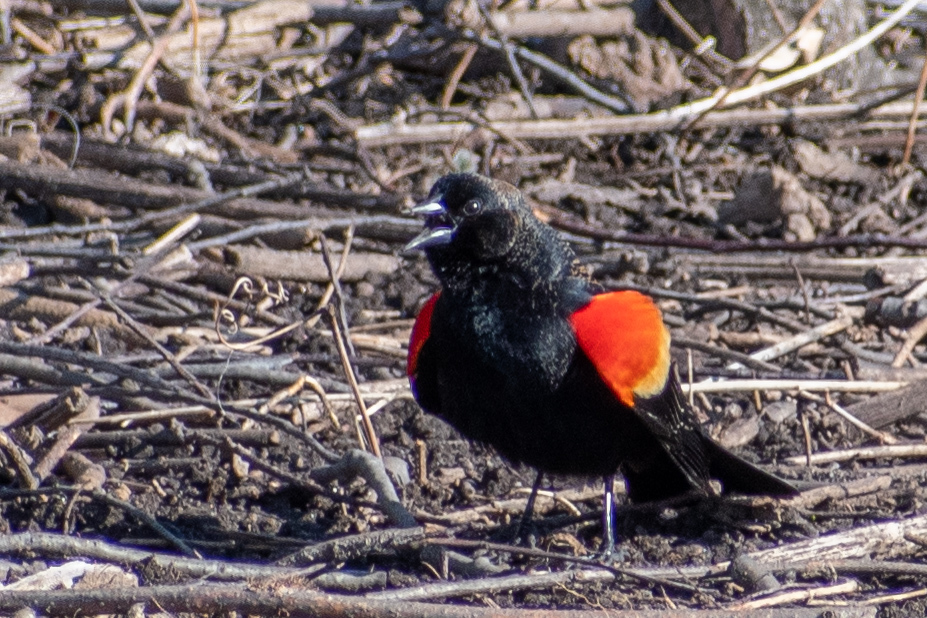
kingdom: Animalia
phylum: Chordata
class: Aves
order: Passeriformes
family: Icteridae
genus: Agelaius
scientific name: Agelaius phoeniceus
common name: Red-winged blackbird
